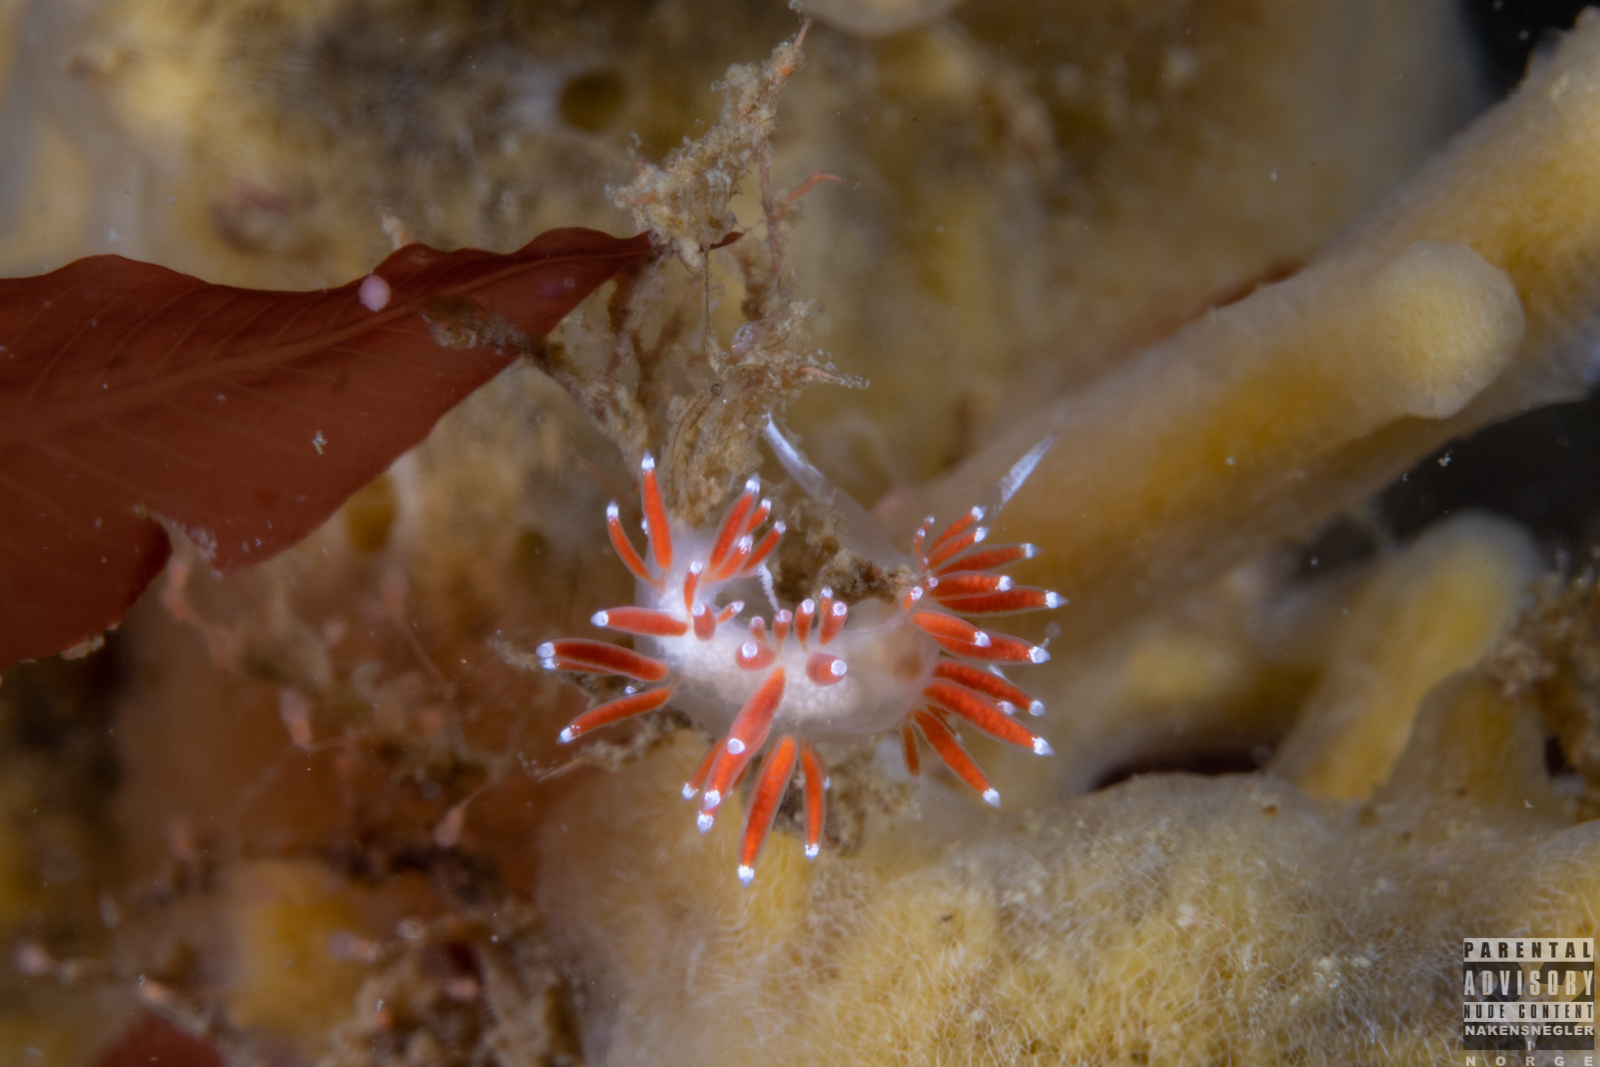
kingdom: Animalia
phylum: Mollusca
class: Gastropoda
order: Nudibranchia
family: Coryphellidae
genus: Coryphella
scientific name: Coryphella gracilis
